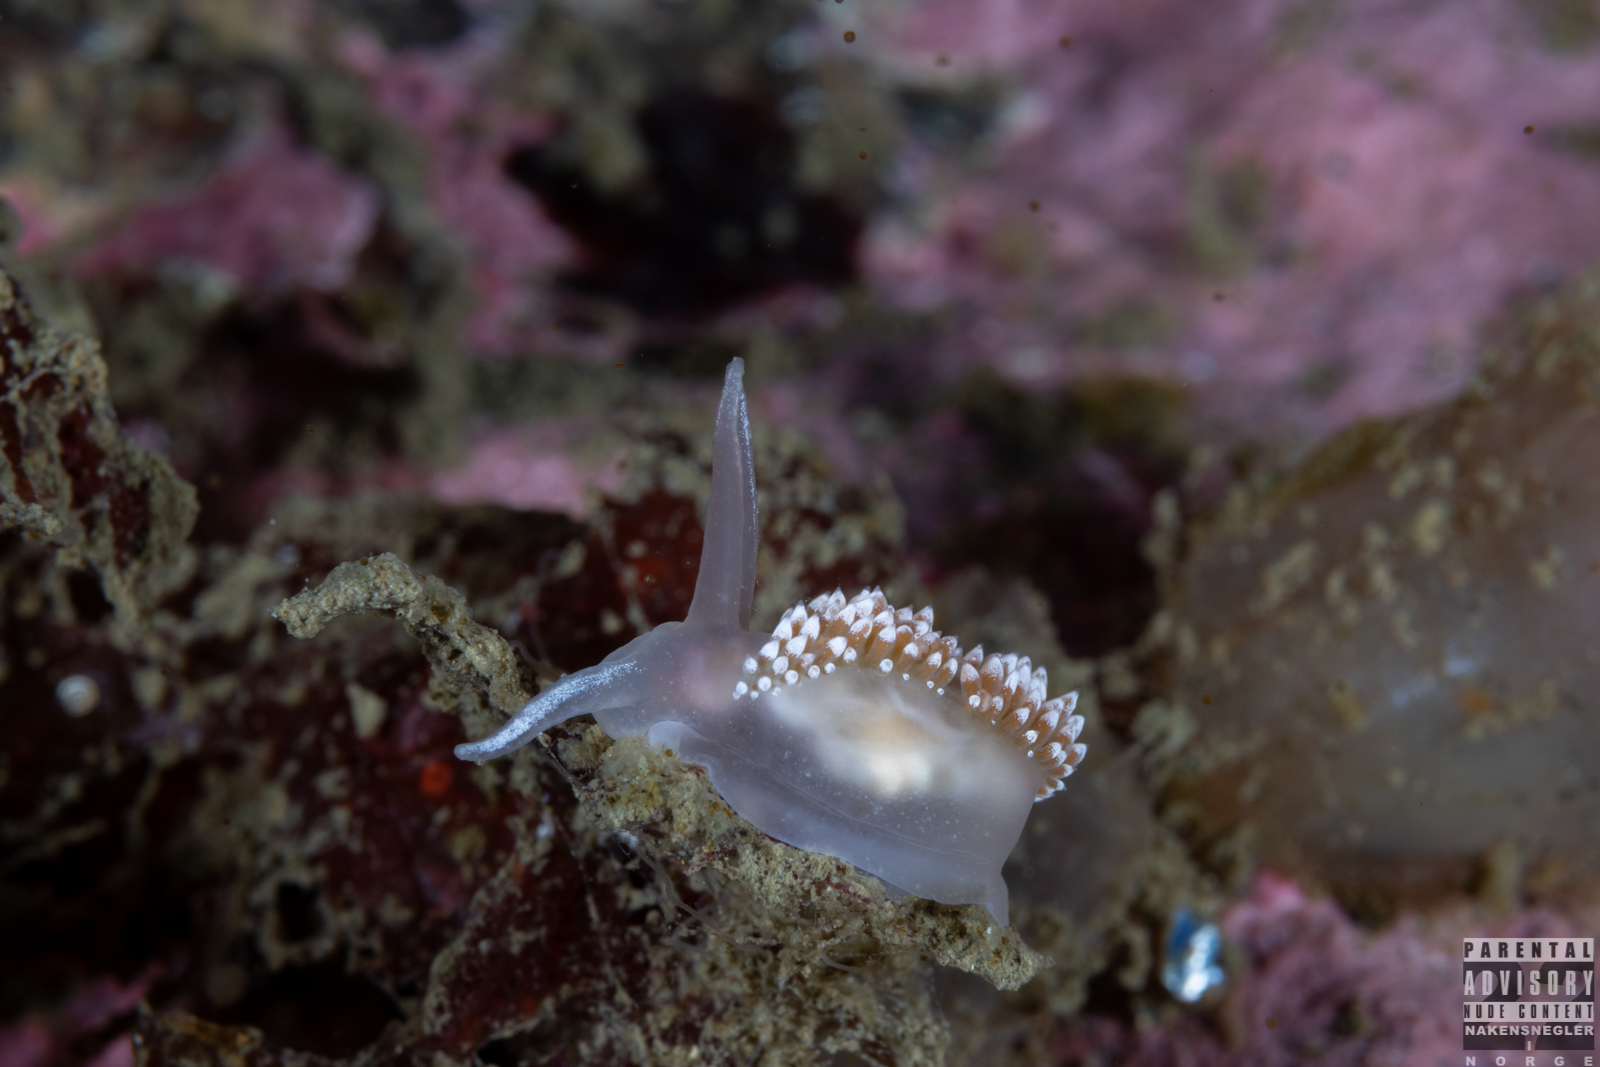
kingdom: Animalia
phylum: Mollusca
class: Gastropoda
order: Nudibranchia
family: Coryphellidae
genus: Coryphella
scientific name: Coryphella verrucosa
